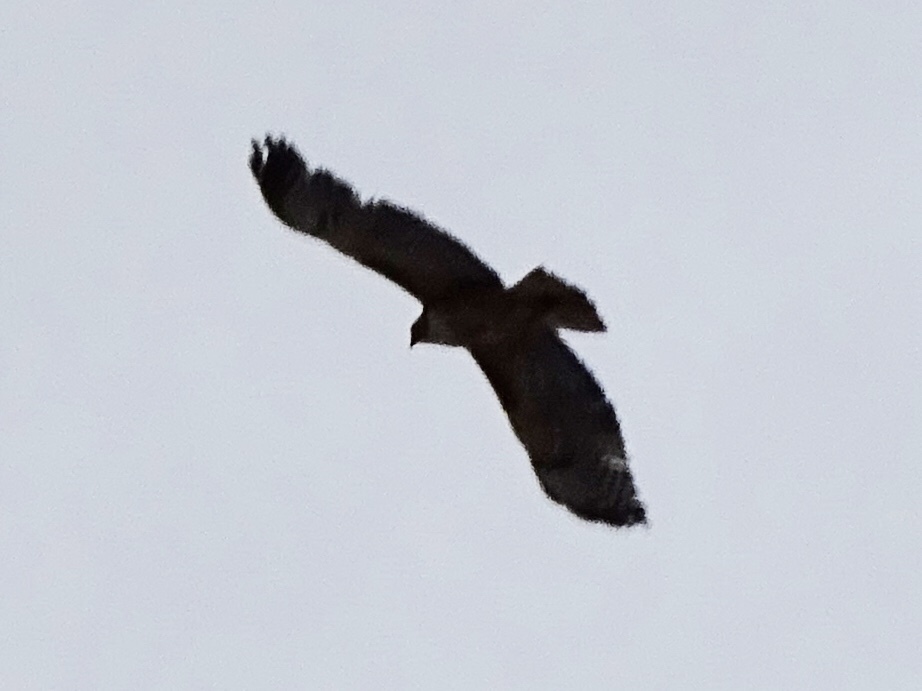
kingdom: Animalia
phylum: Chordata
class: Aves
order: Accipitriformes
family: Accipitridae
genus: Buteo
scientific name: Buteo jamaicensis
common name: Red-tailed hawk
